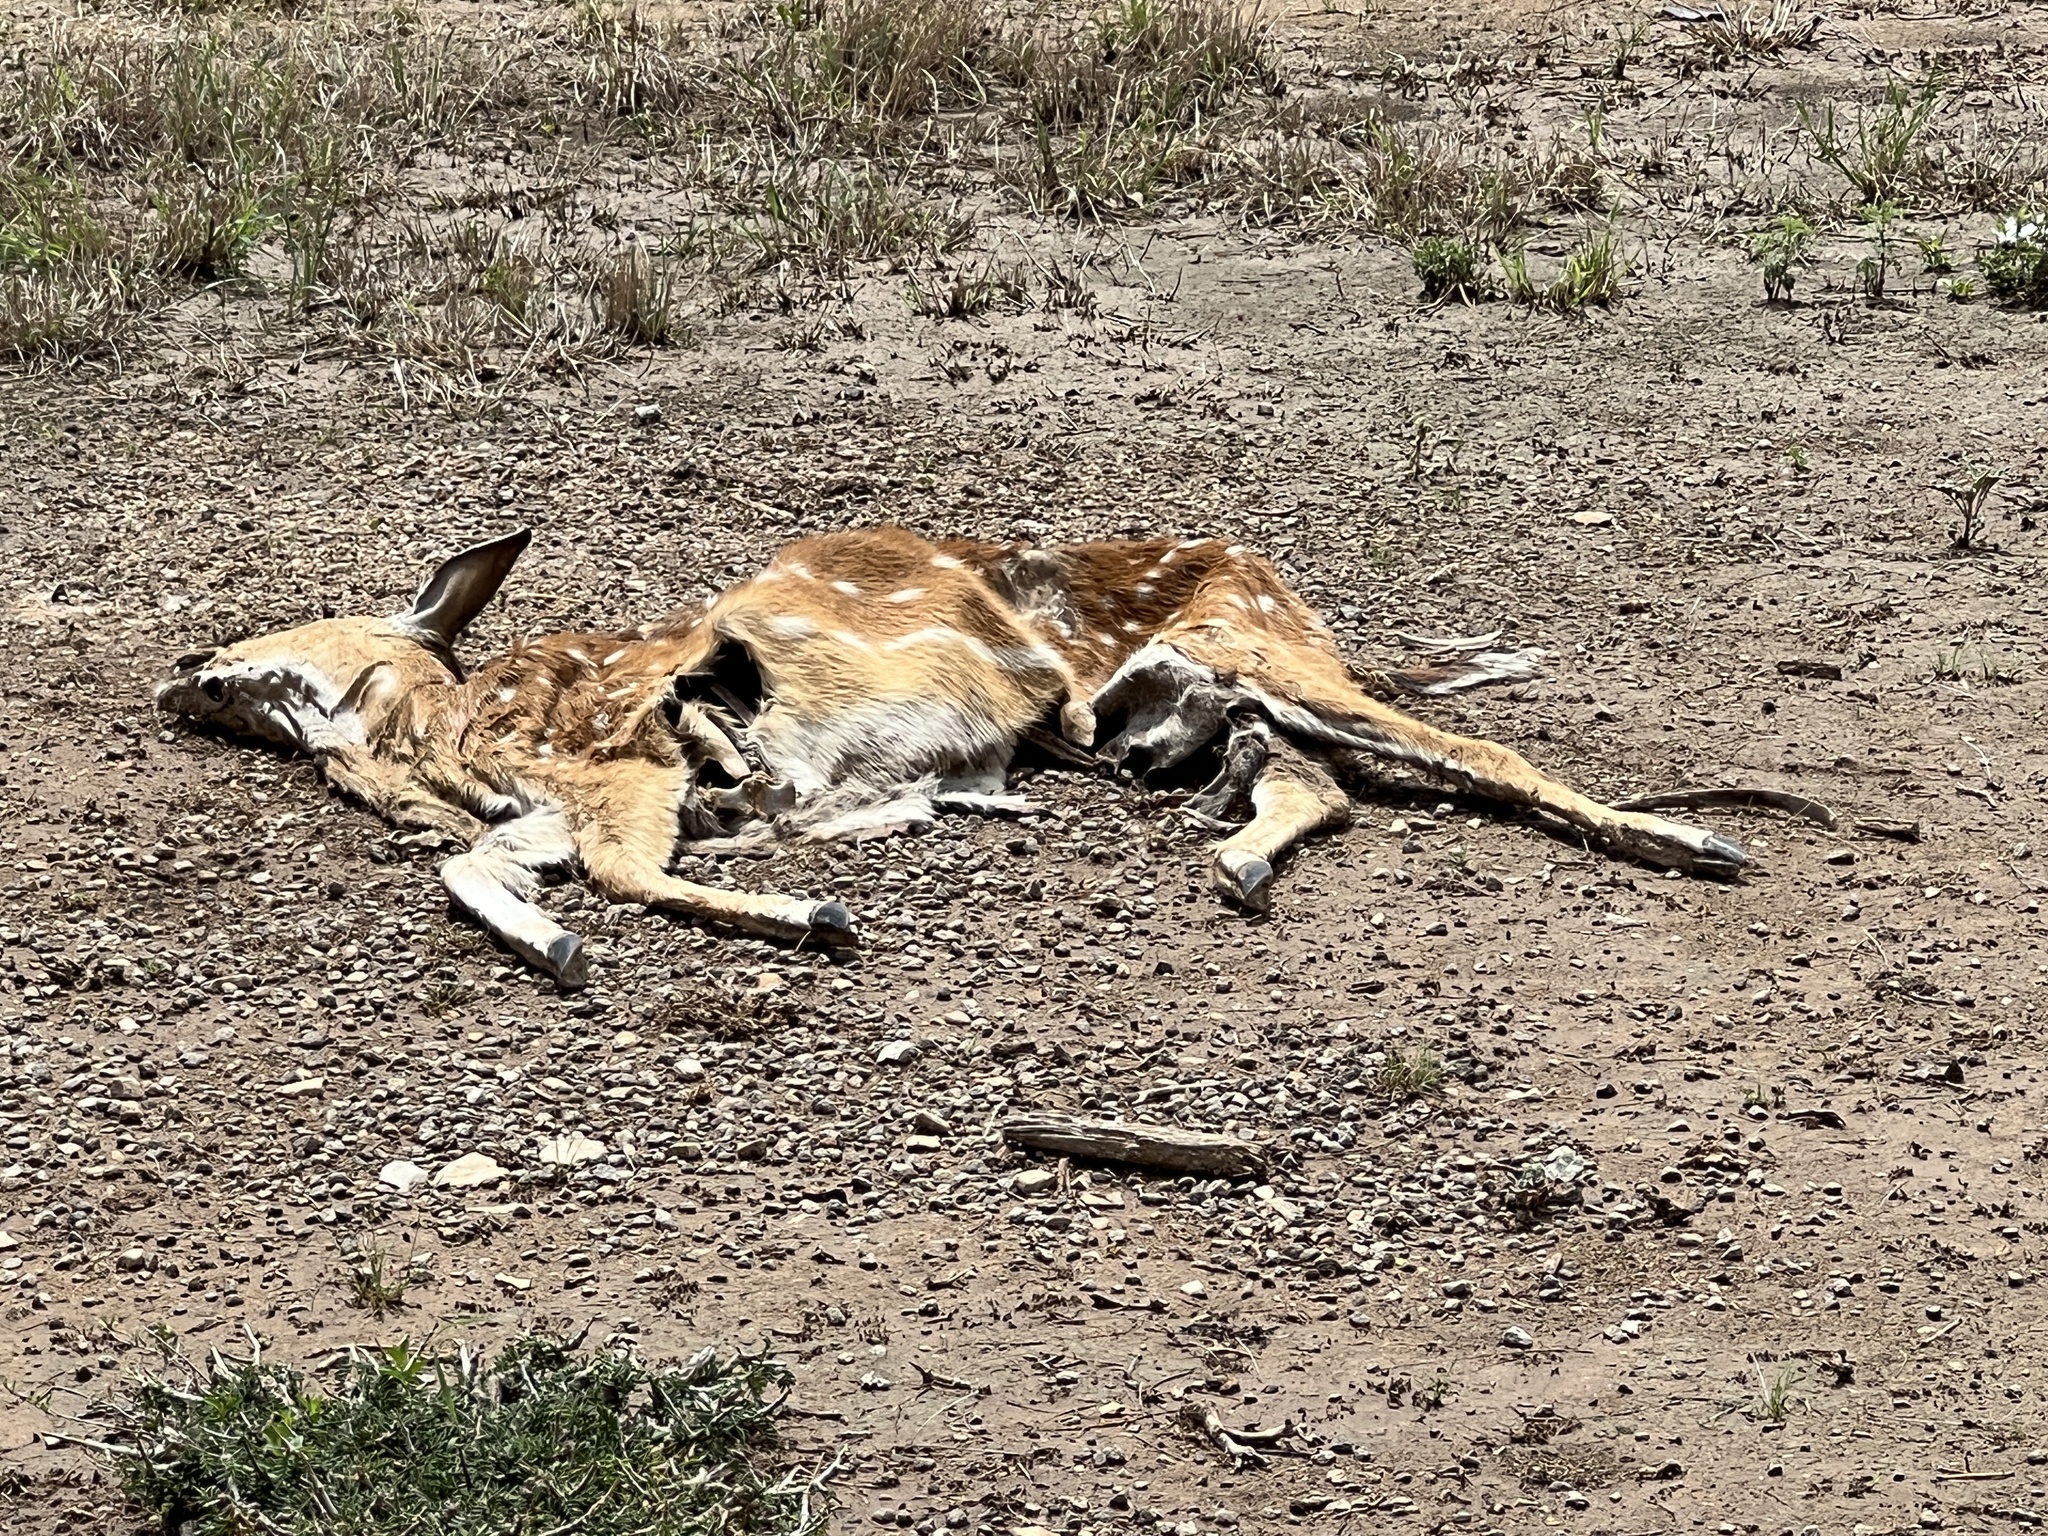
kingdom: Animalia
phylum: Chordata
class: Mammalia
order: Artiodactyla
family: Cervidae
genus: Axis
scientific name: Axis axis
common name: Chital
